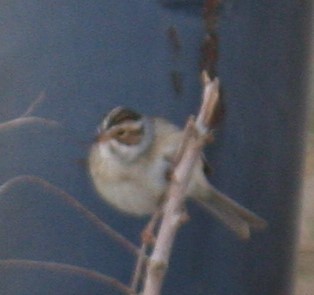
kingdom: Animalia
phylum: Chordata
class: Aves
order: Passeriformes
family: Passerellidae
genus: Spizella
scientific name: Spizella pallida
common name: Clay-colored sparrow
